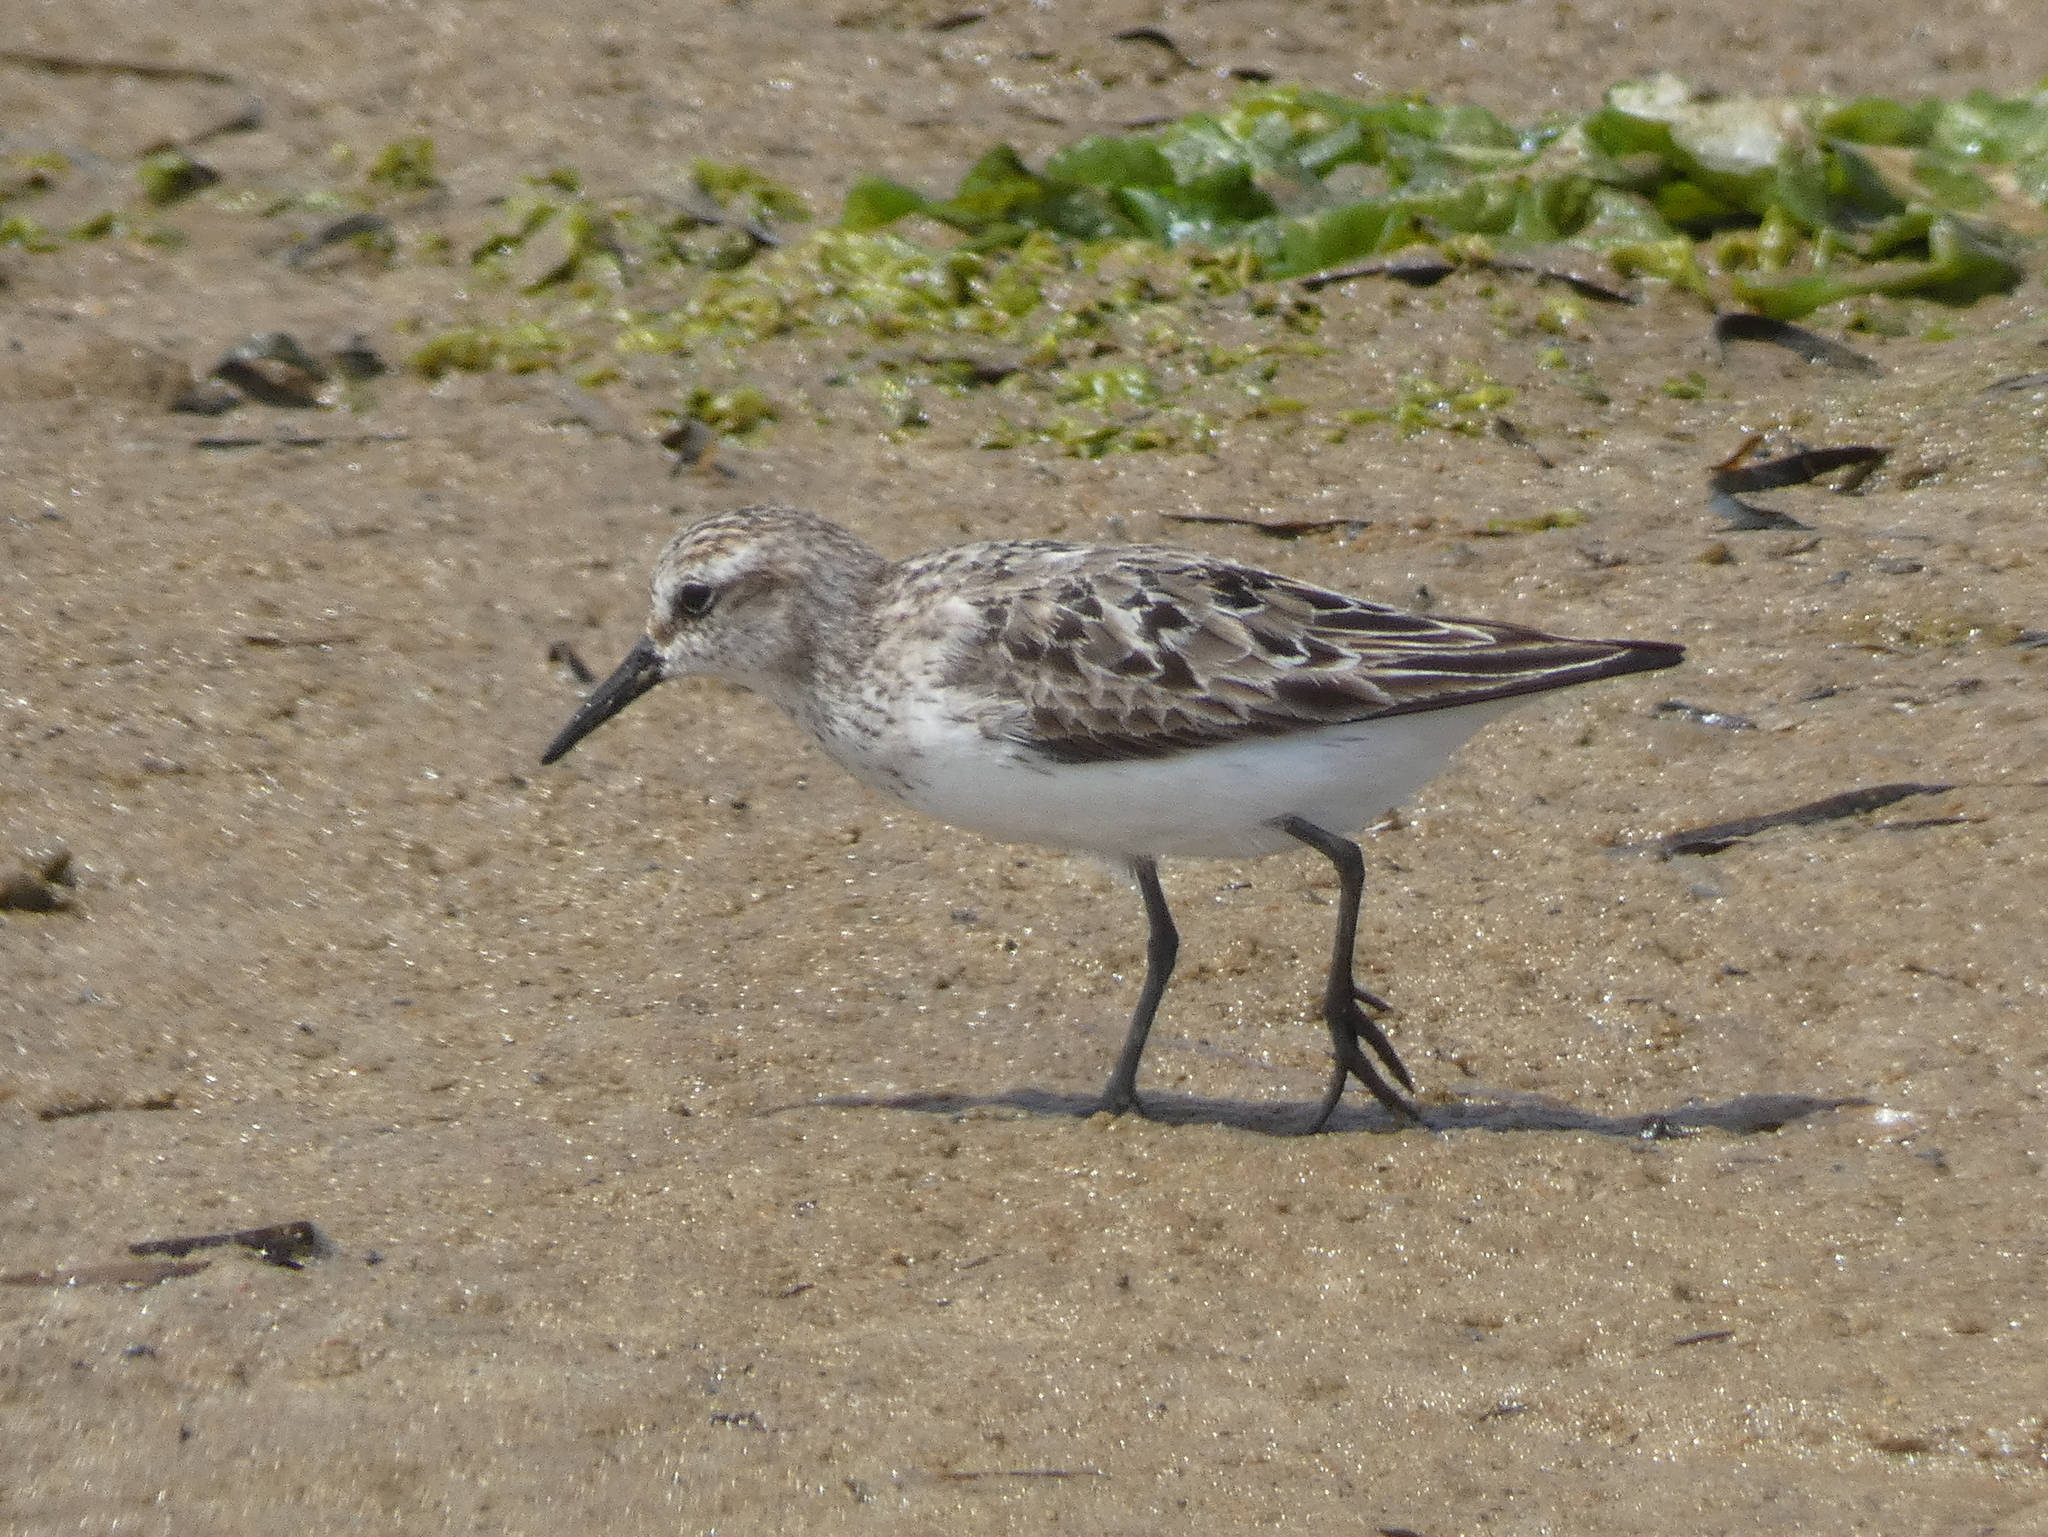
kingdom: Animalia
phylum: Chordata
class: Aves
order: Charadriiformes
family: Scolopacidae
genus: Calidris
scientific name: Calidris pusilla
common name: Semipalmated sandpiper
